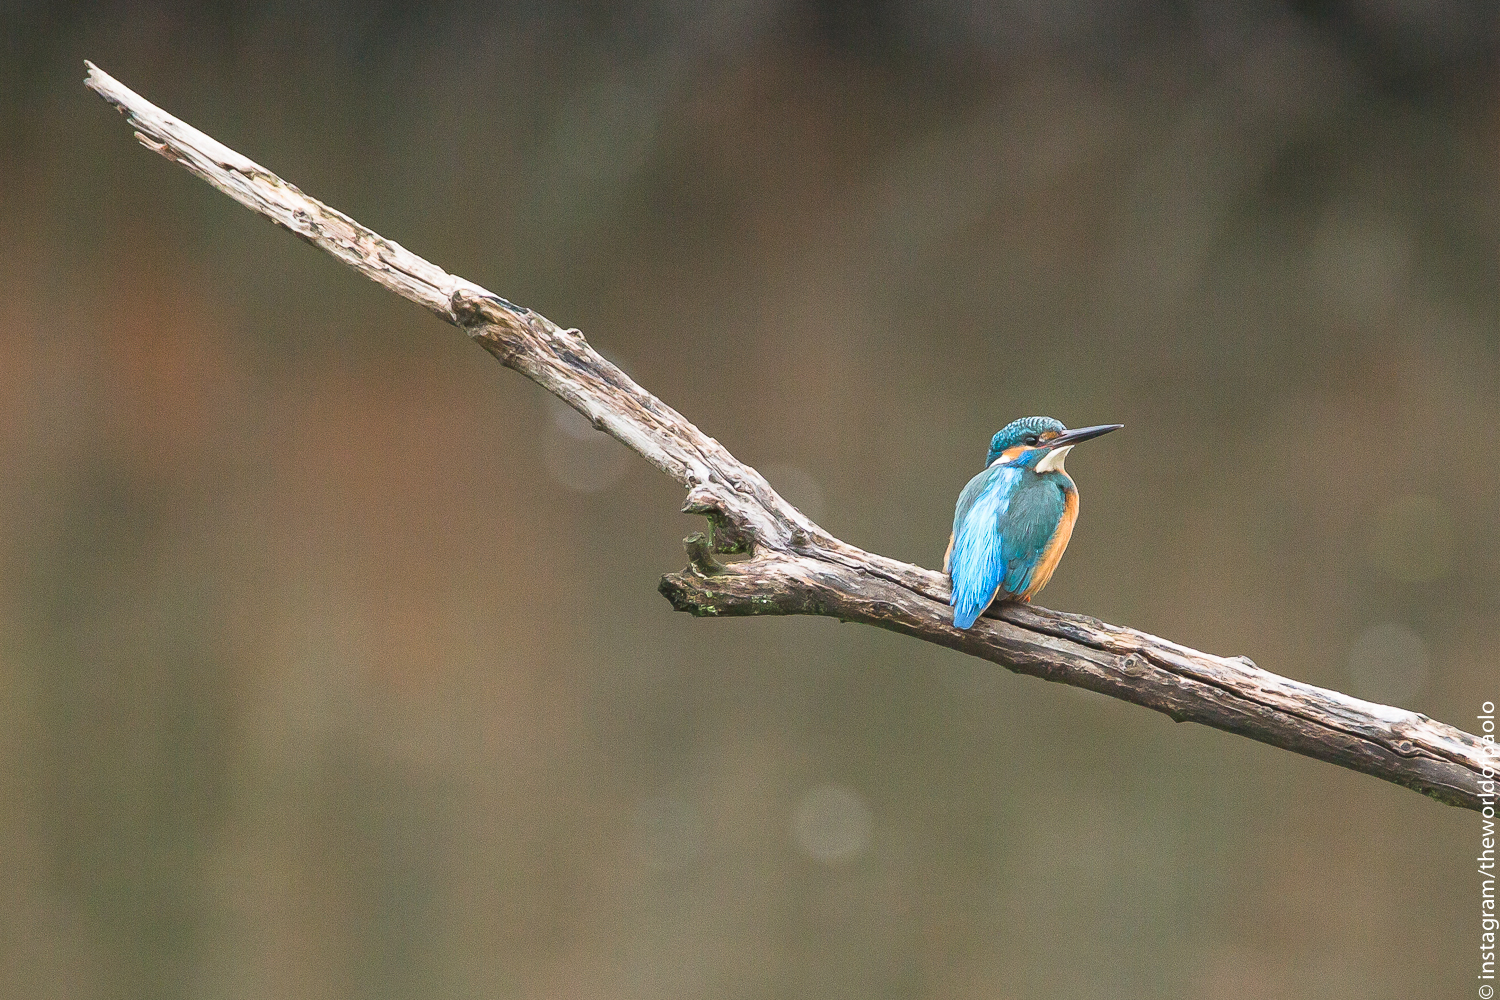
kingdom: Animalia
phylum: Chordata
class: Aves
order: Coraciiformes
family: Alcedinidae
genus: Alcedo
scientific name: Alcedo atthis
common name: Common kingfisher
